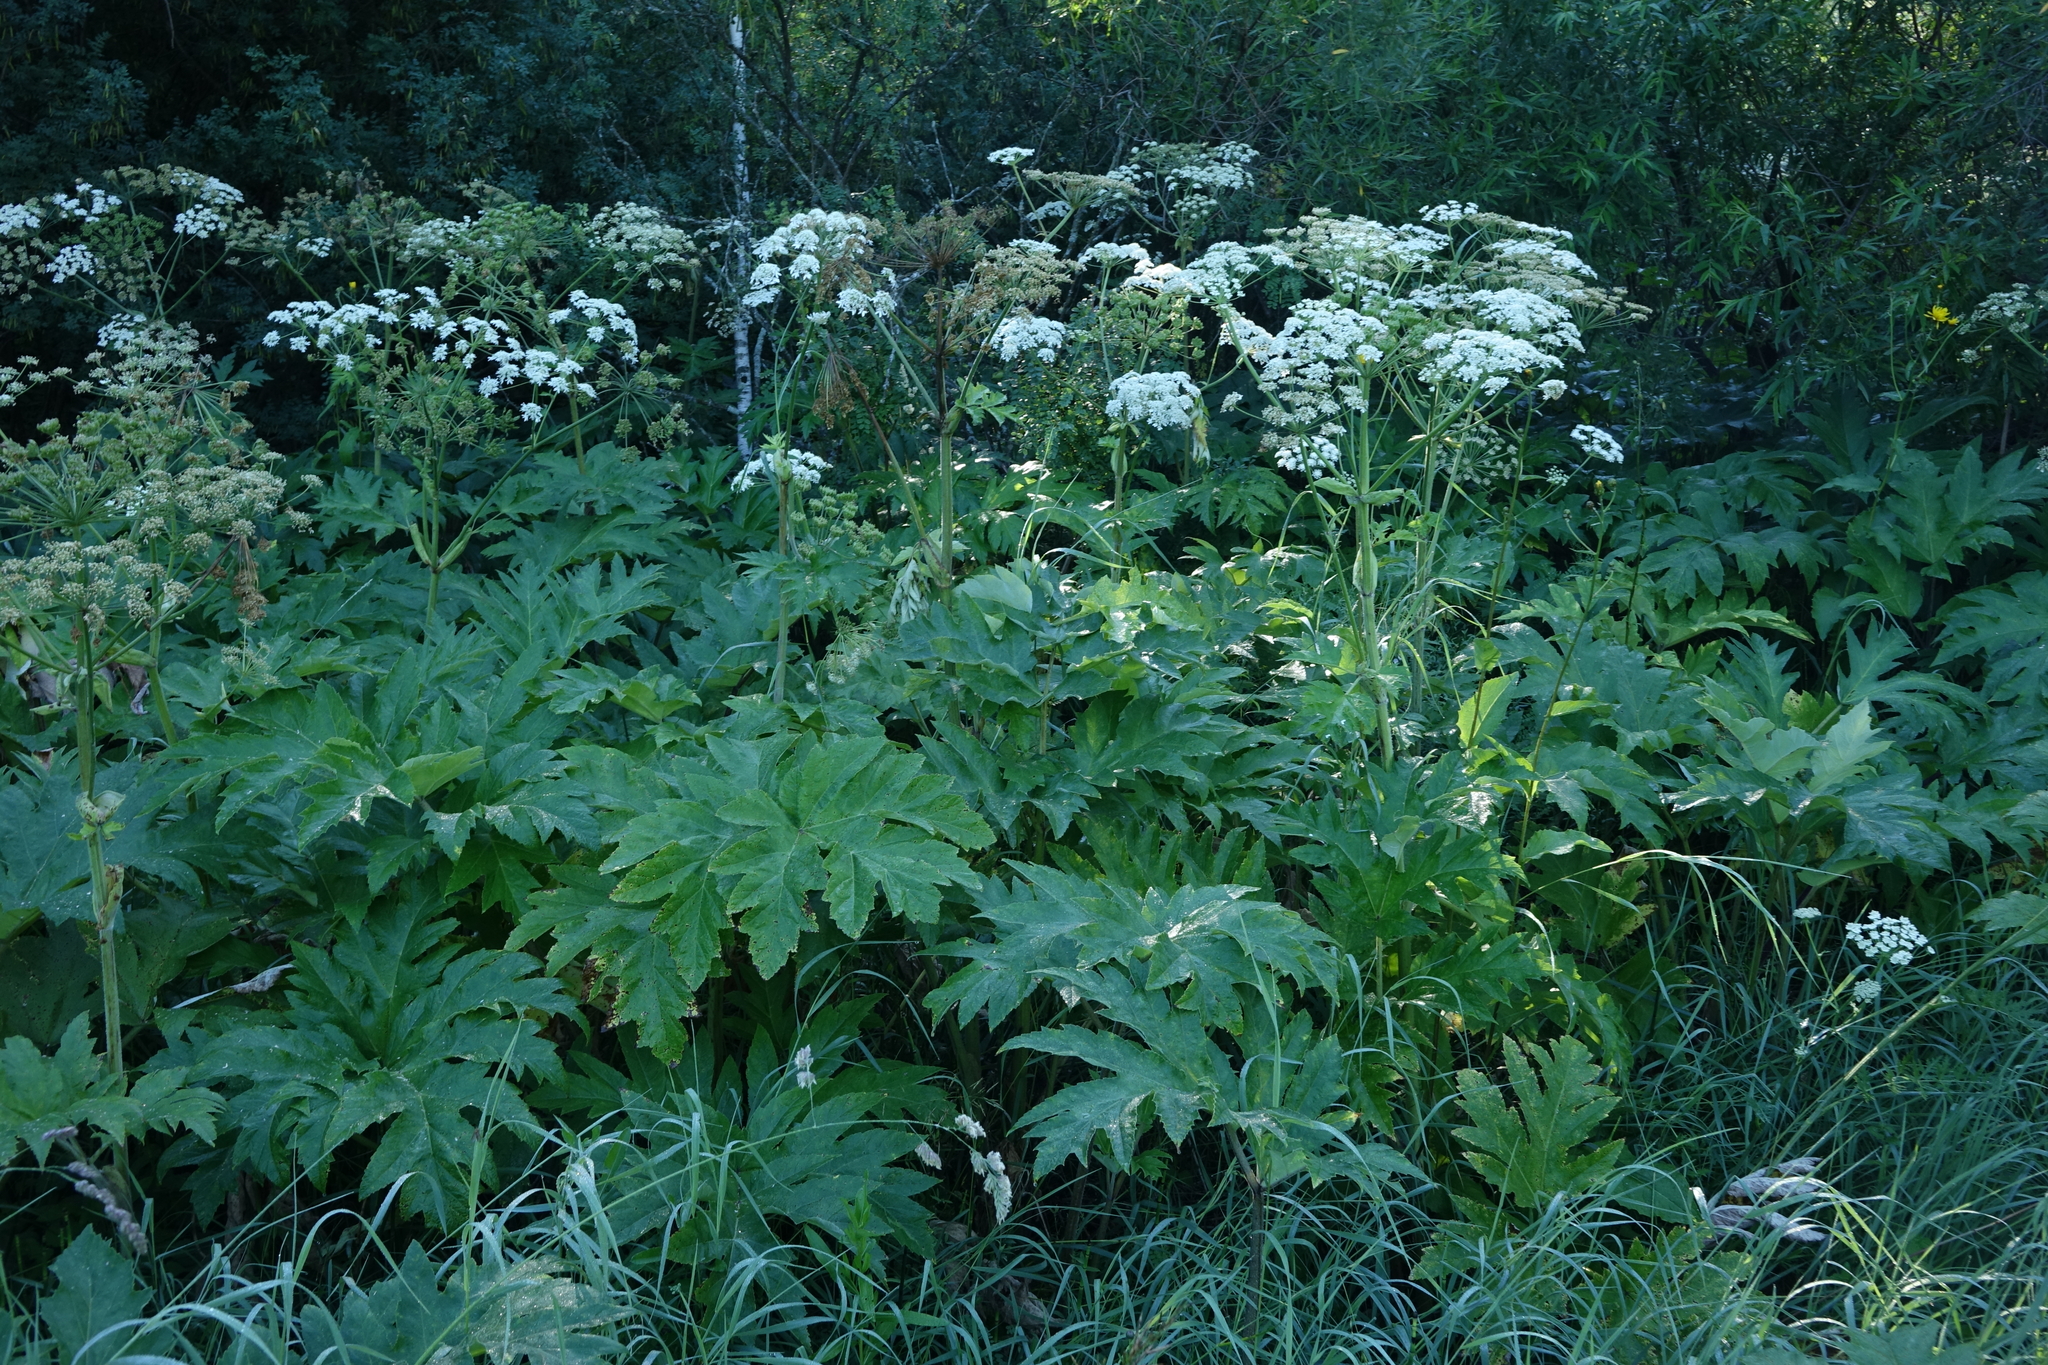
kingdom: Plantae
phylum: Tracheophyta
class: Magnoliopsida
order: Apiales
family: Apiaceae
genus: Heracleum
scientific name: Heracleum dissectum
